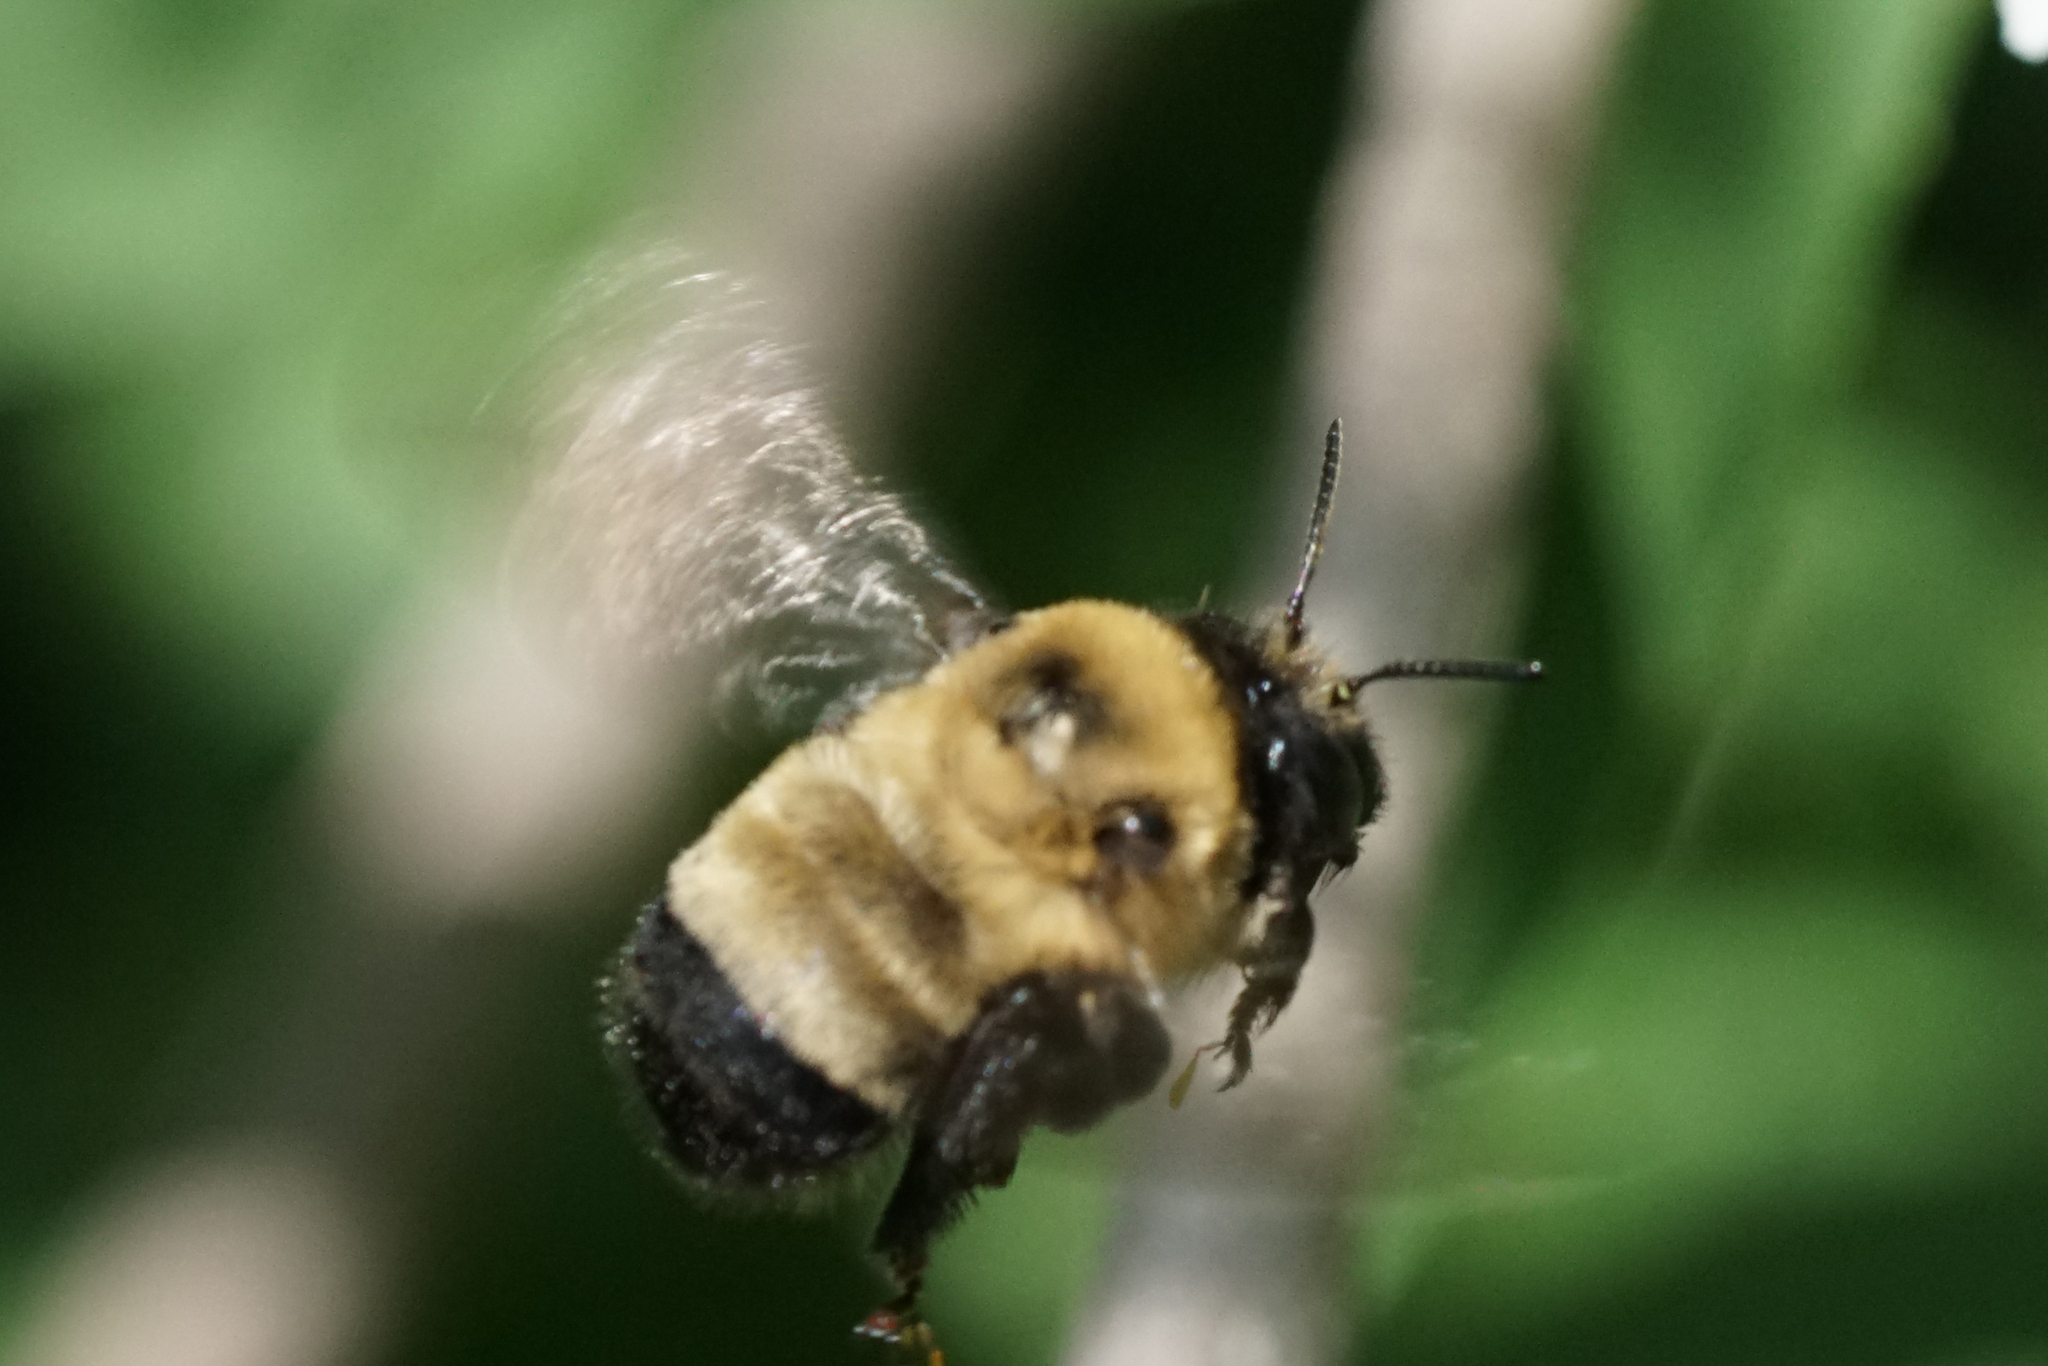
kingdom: Animalia
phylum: Arthropoda
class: Insecta
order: Hymenoptera
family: Apidae
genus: Anthophora
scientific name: Anthophora bomboides
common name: Bumble-bee-mimic digger bee
